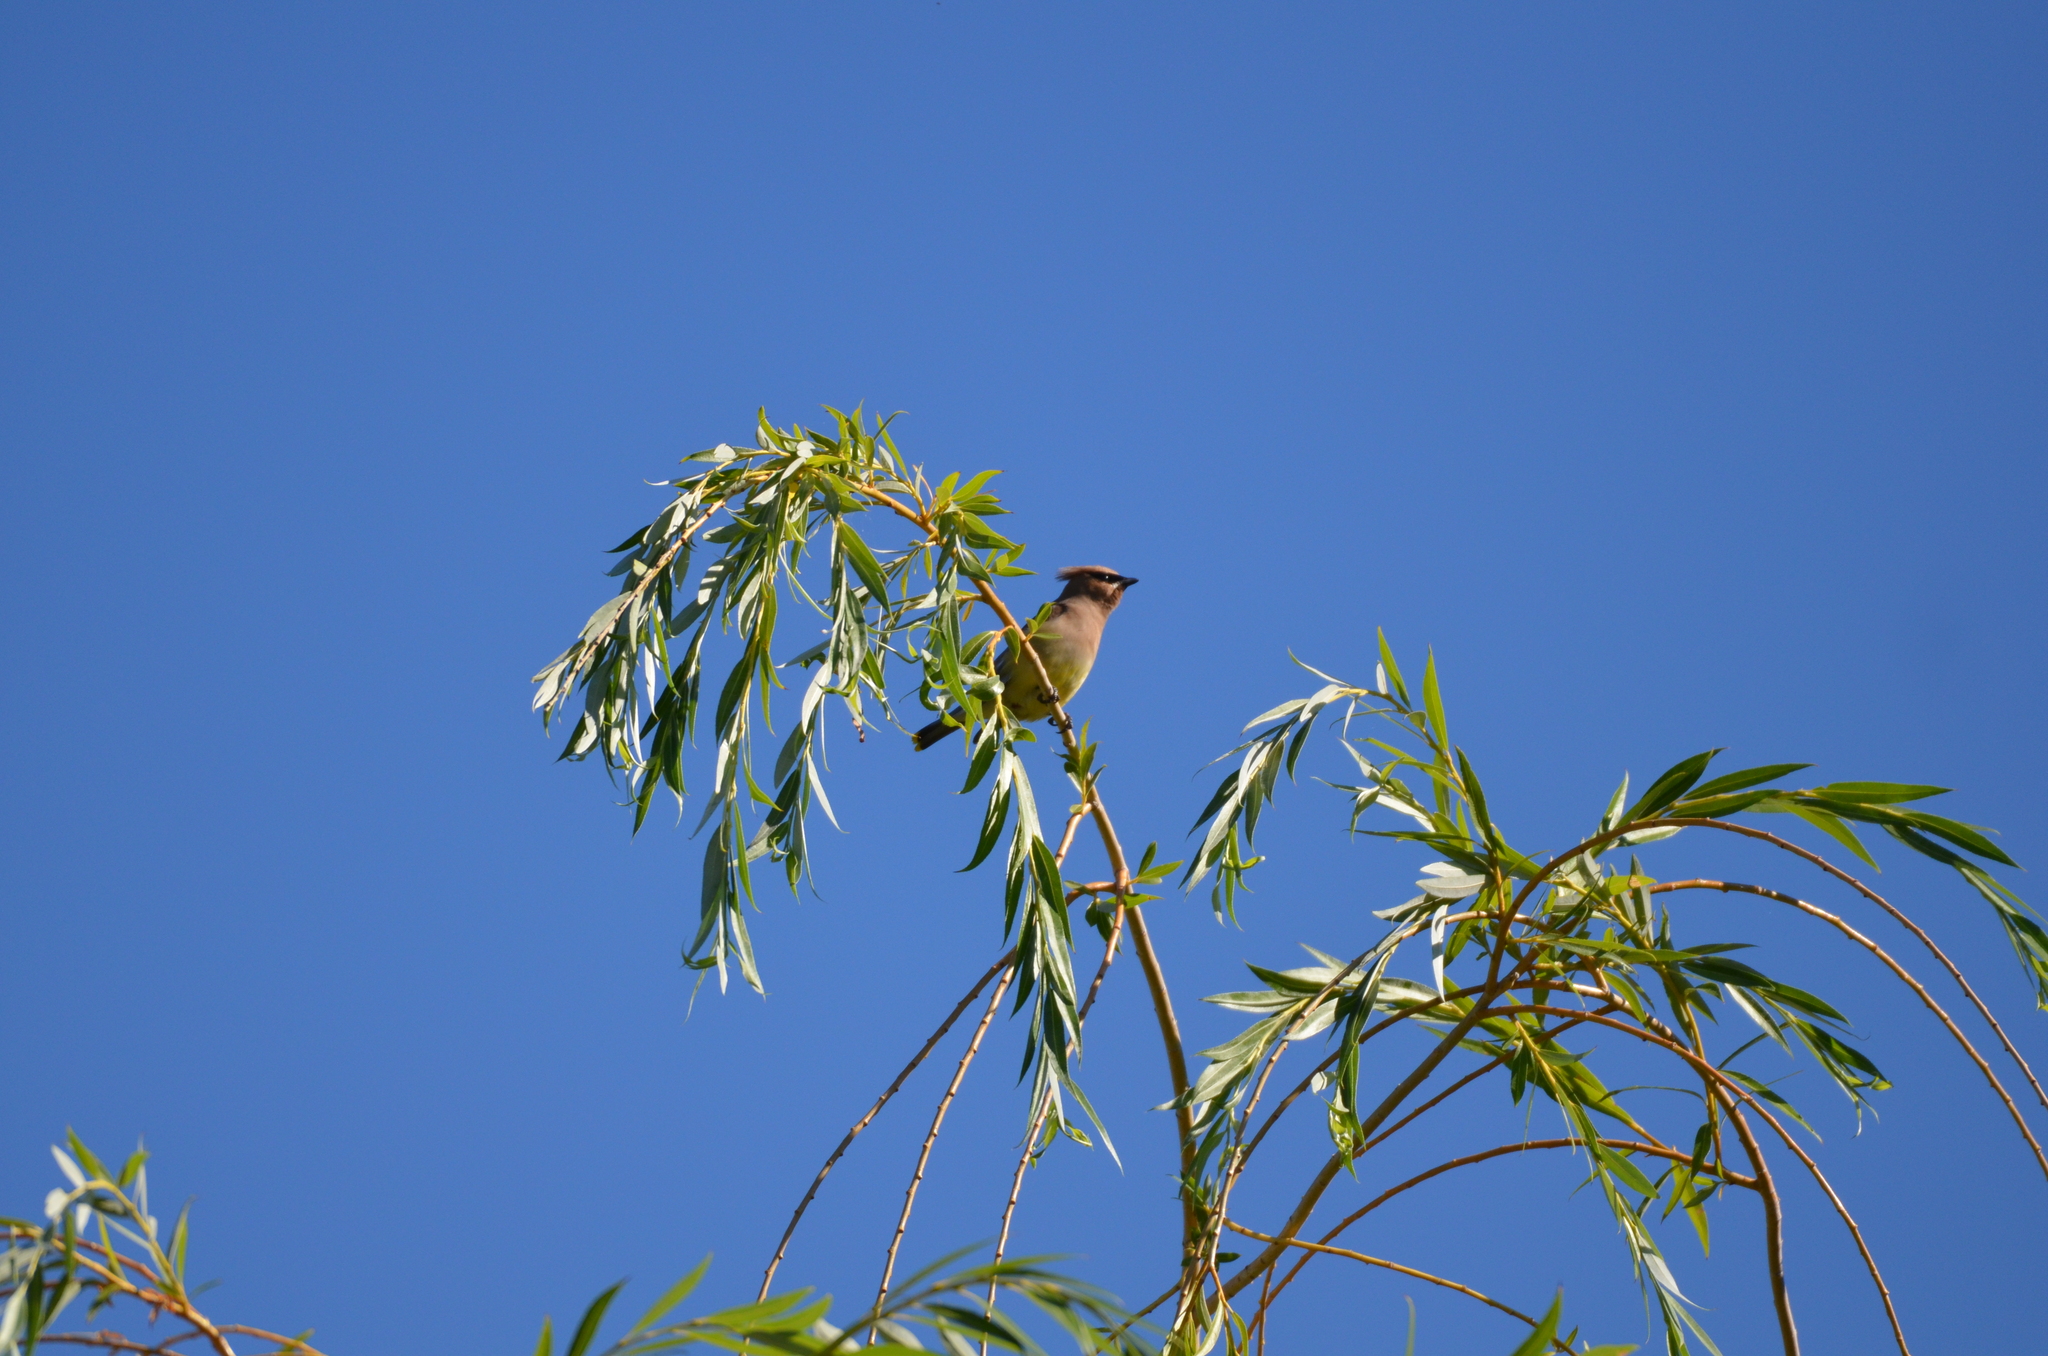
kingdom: Animalia
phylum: Chordata
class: Aves
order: Passeriformes
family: Bombycillidae
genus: Bombycilla
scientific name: Bombycilla cedrorum
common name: Cedar waxwing
